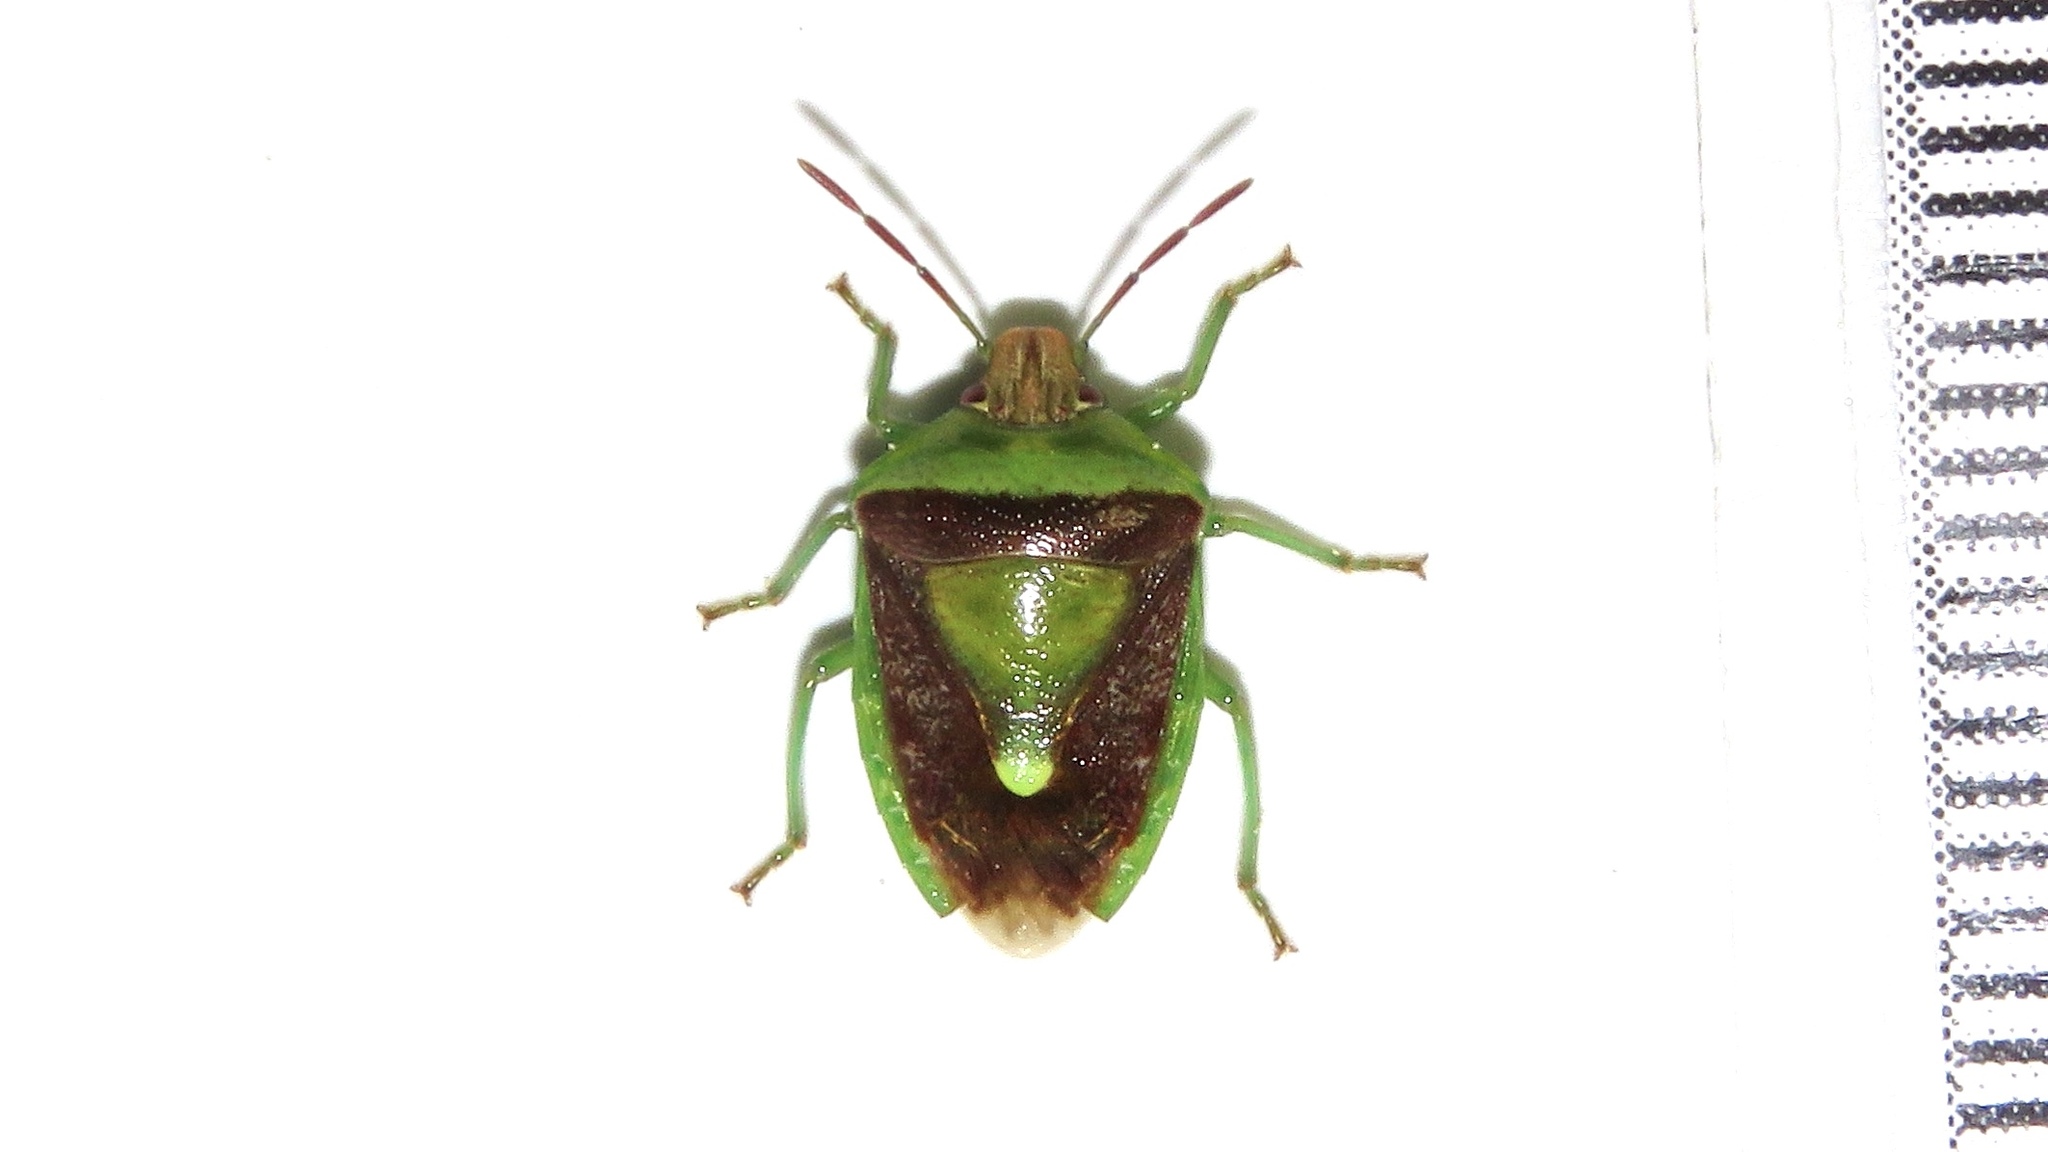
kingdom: Animalia
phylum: Arthropoda
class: Insecta
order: Hemiptera
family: Pentatomidae
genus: Banasa
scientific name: Banasa dimidiata
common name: Green burgundy stink bug
